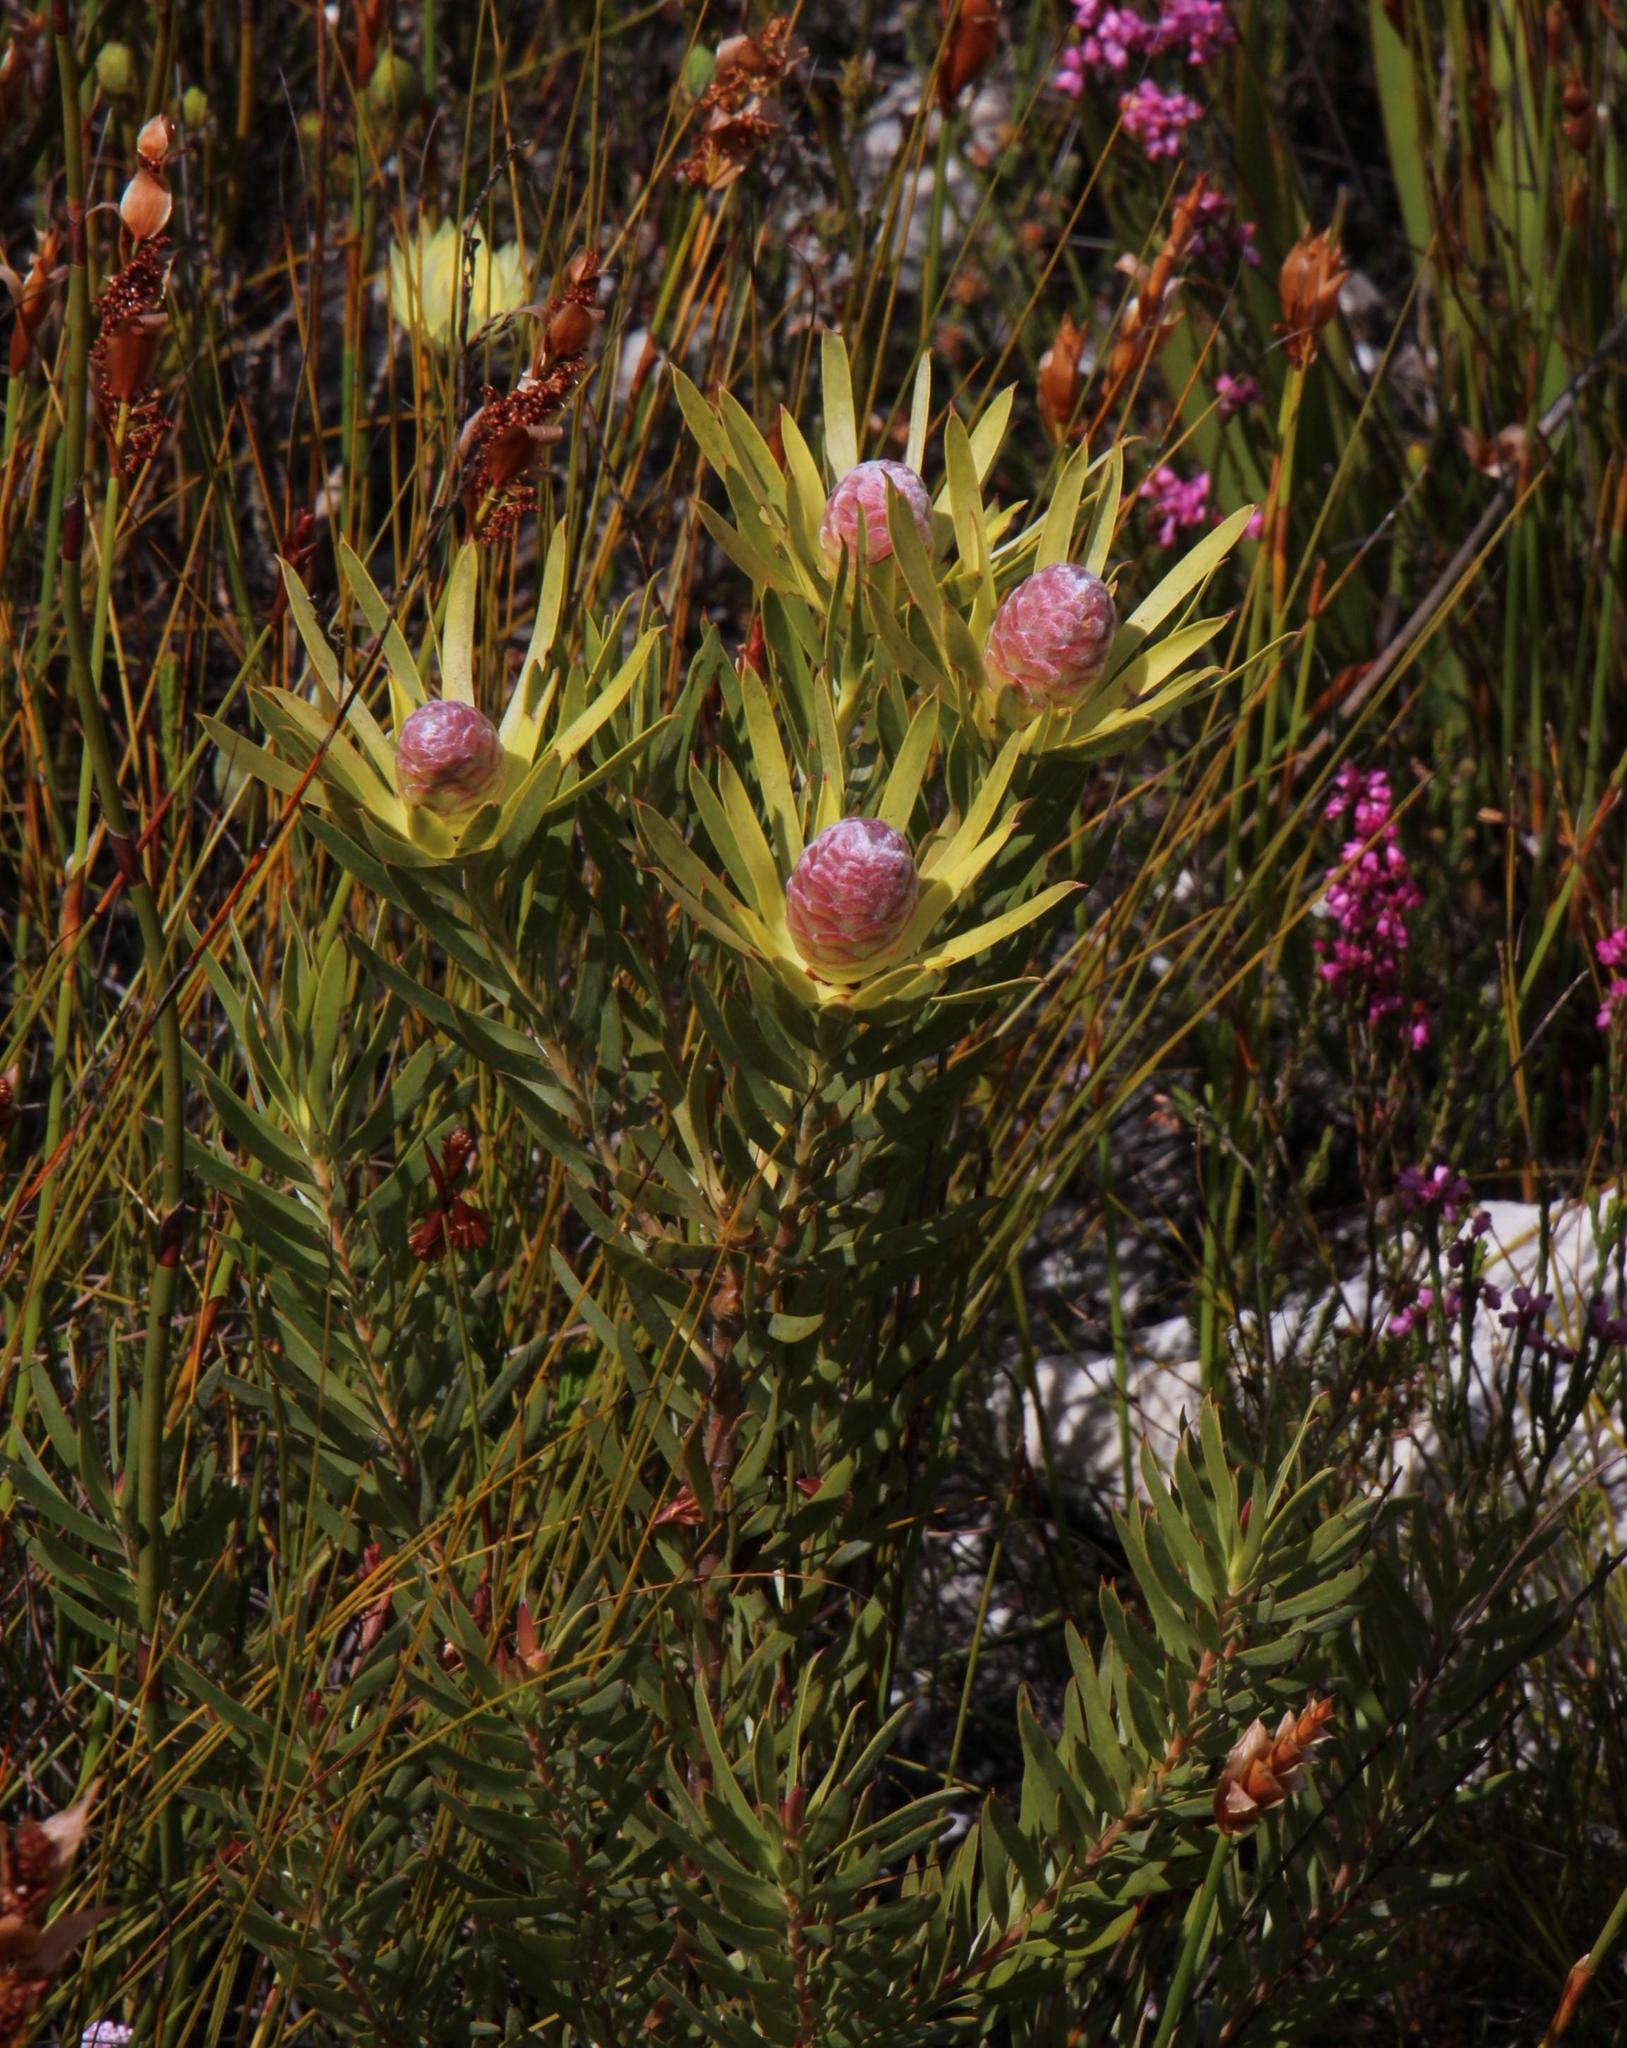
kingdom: Plantae
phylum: Tracheophyta
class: Magnoliopsida
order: Proteales
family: Proteaceae
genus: Leucadendron
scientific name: Leucadendron xanthoconus
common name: Sickle-leaf conebush
